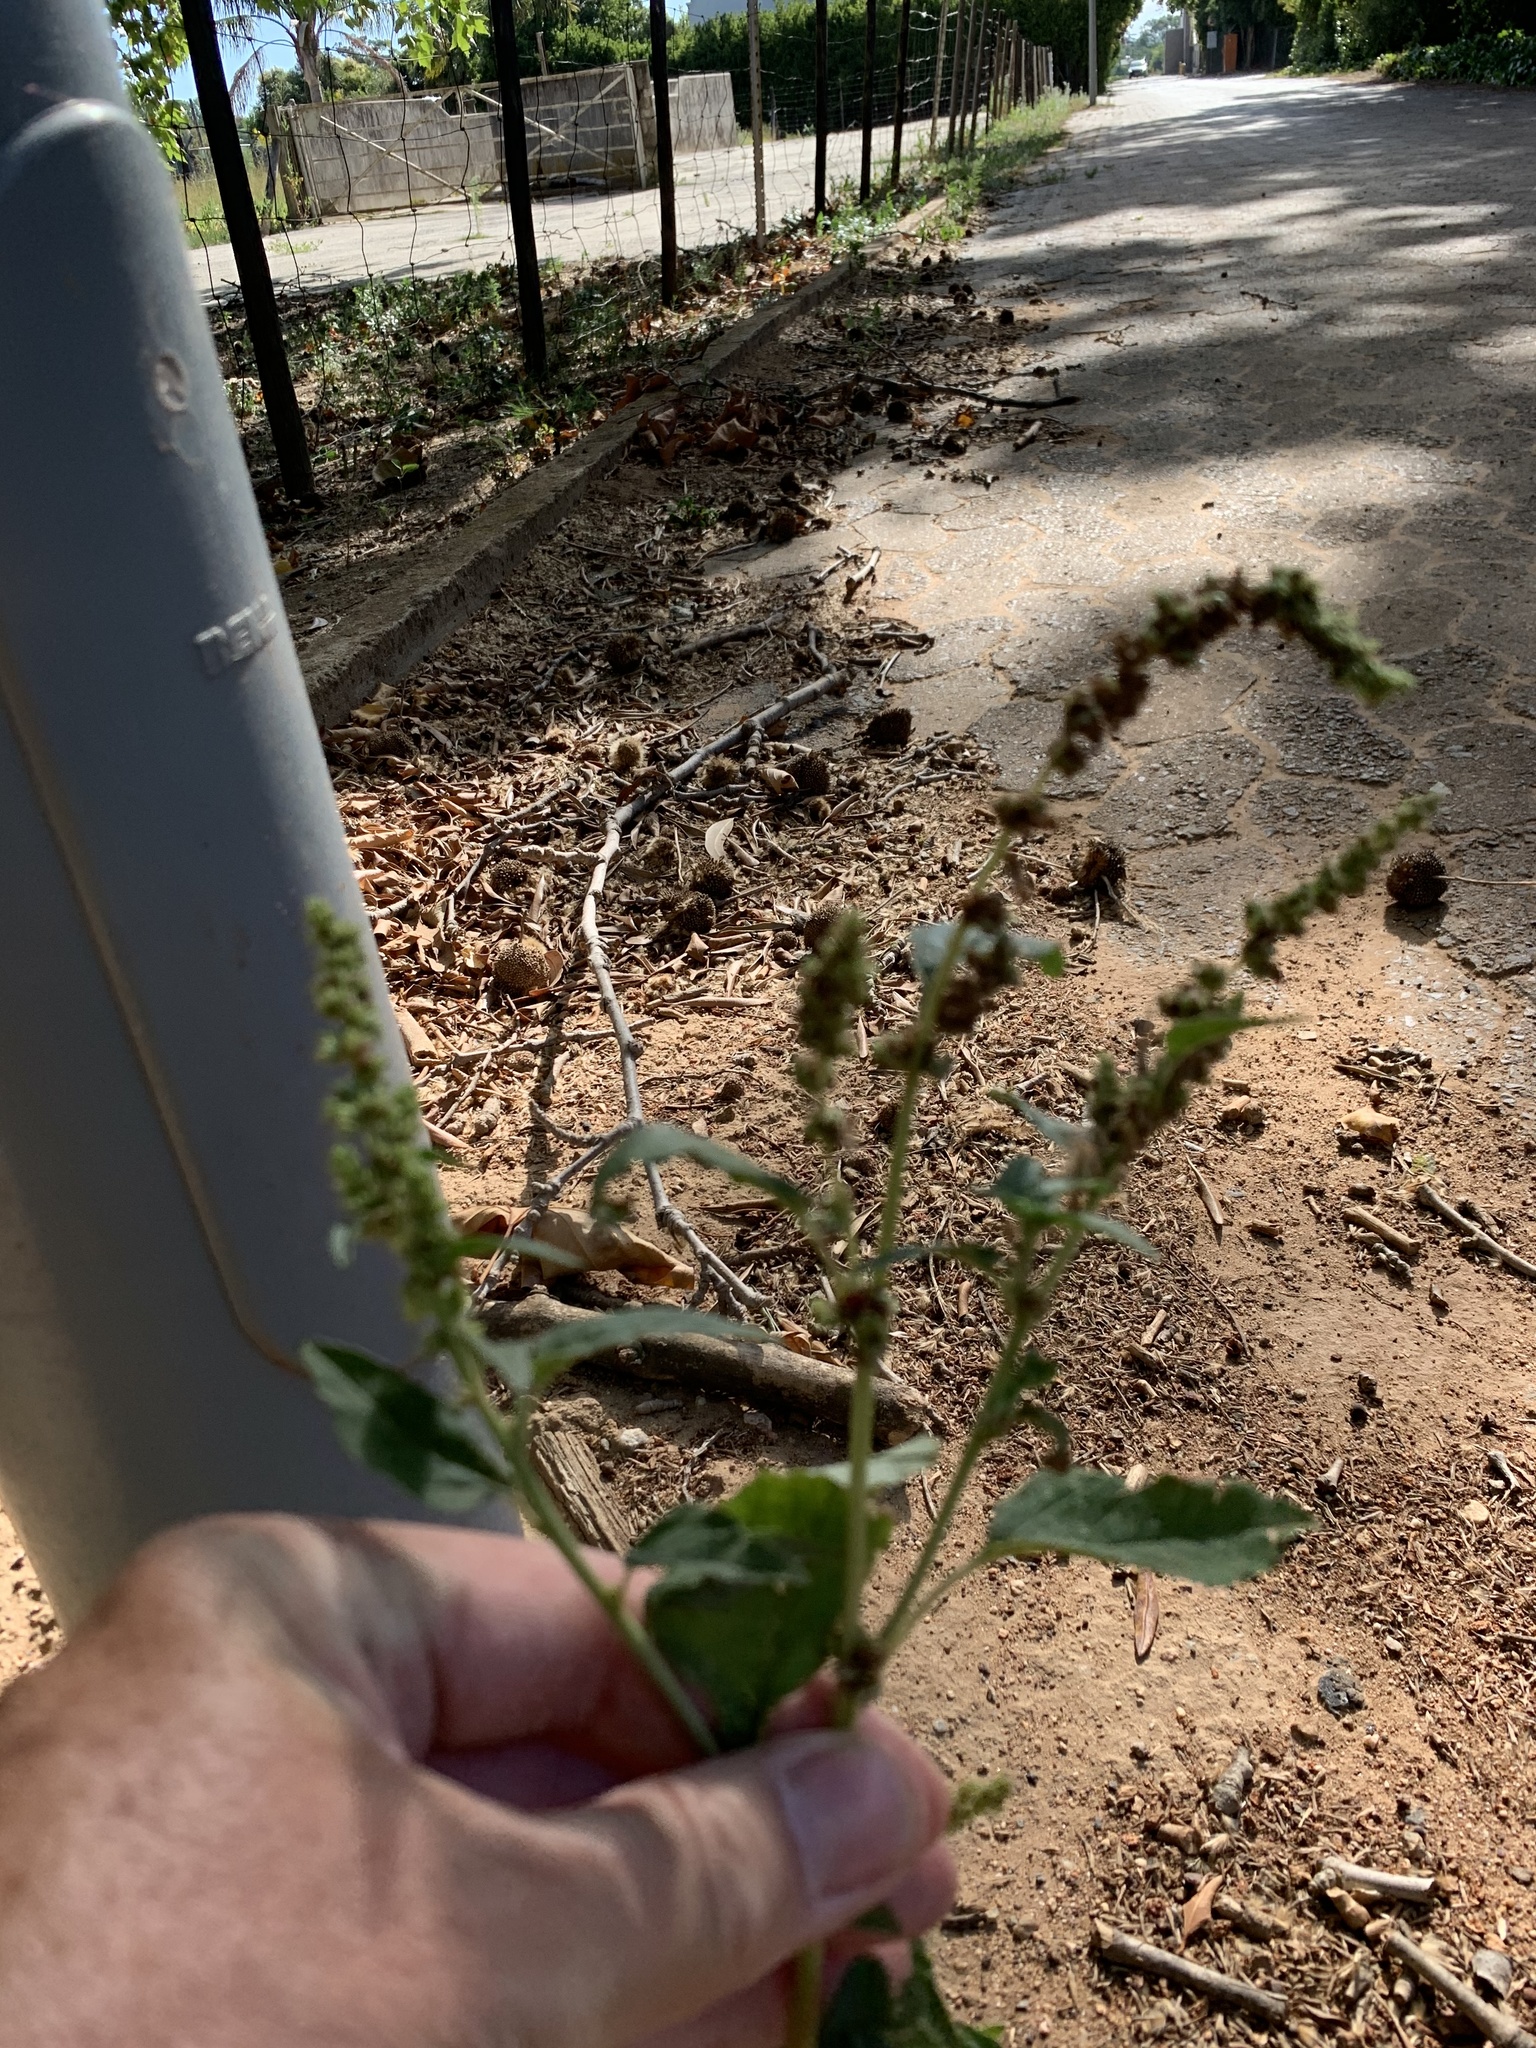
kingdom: Plantae
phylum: Tracheophyta
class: Magnoliopsida
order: Caryophyllales
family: Amaranthaceae
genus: Amaranthus
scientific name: Amaranthus deflexus
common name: Perennial pigweed
